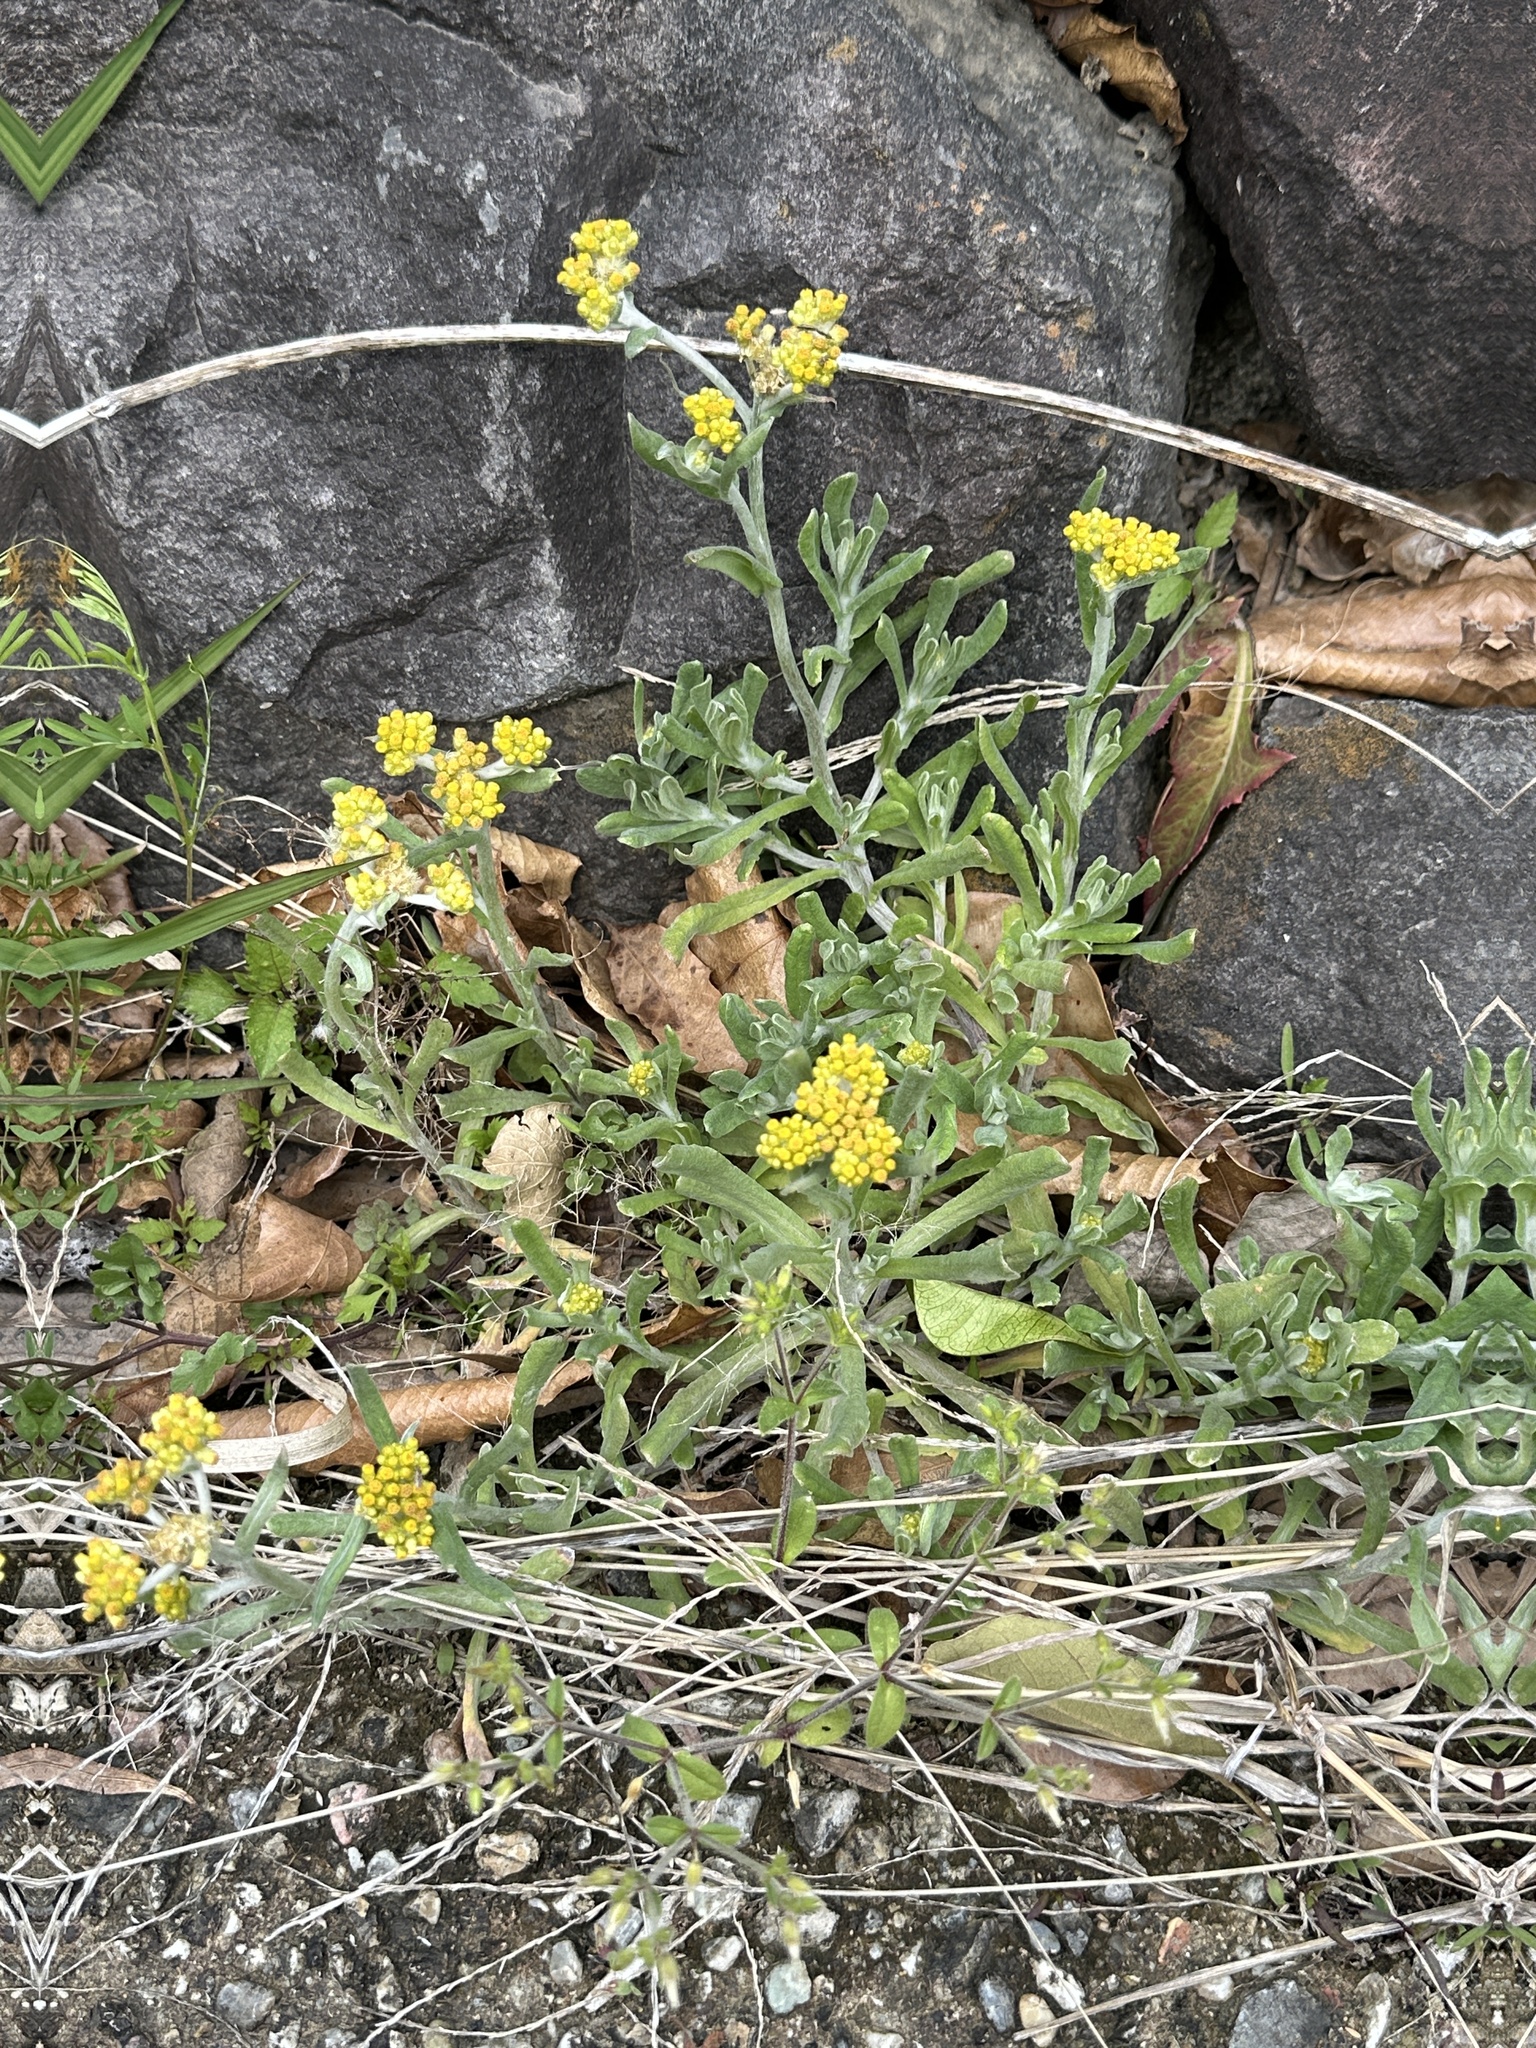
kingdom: Plantae
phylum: Tracheophyta
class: Magnoliopsida
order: Asterales
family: Asteraceae
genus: Pseudognaphalium
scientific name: Pseudognaphalium affine
